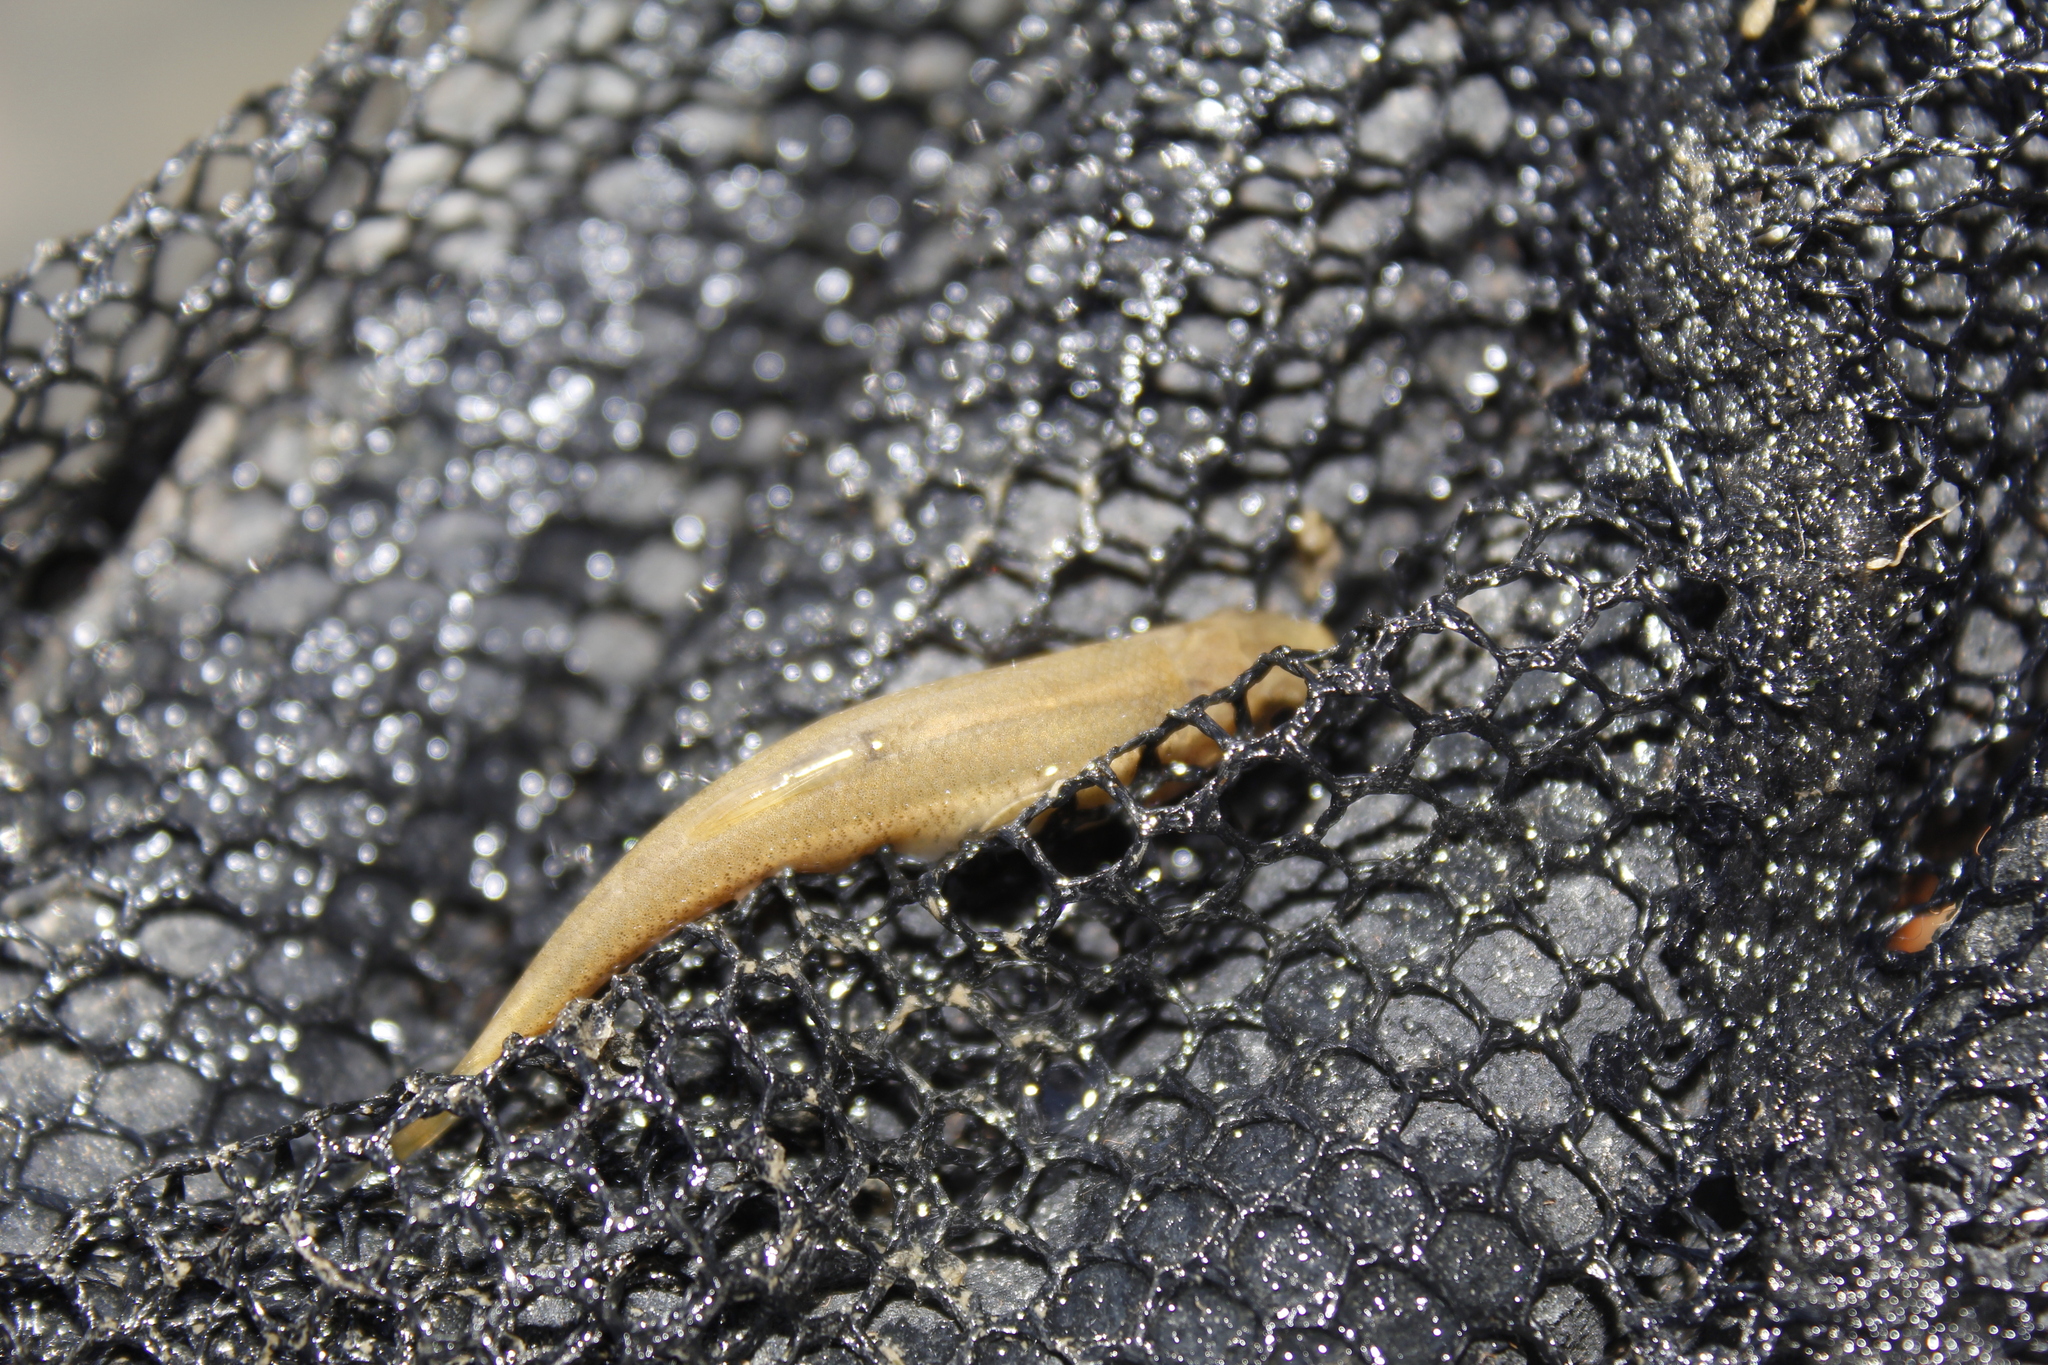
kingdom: Animalia
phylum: Chordata
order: Cypriniformes
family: Cyprinidae
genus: Exoglossum
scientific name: Exoglossum maxillingua
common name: Cutlip minnow
